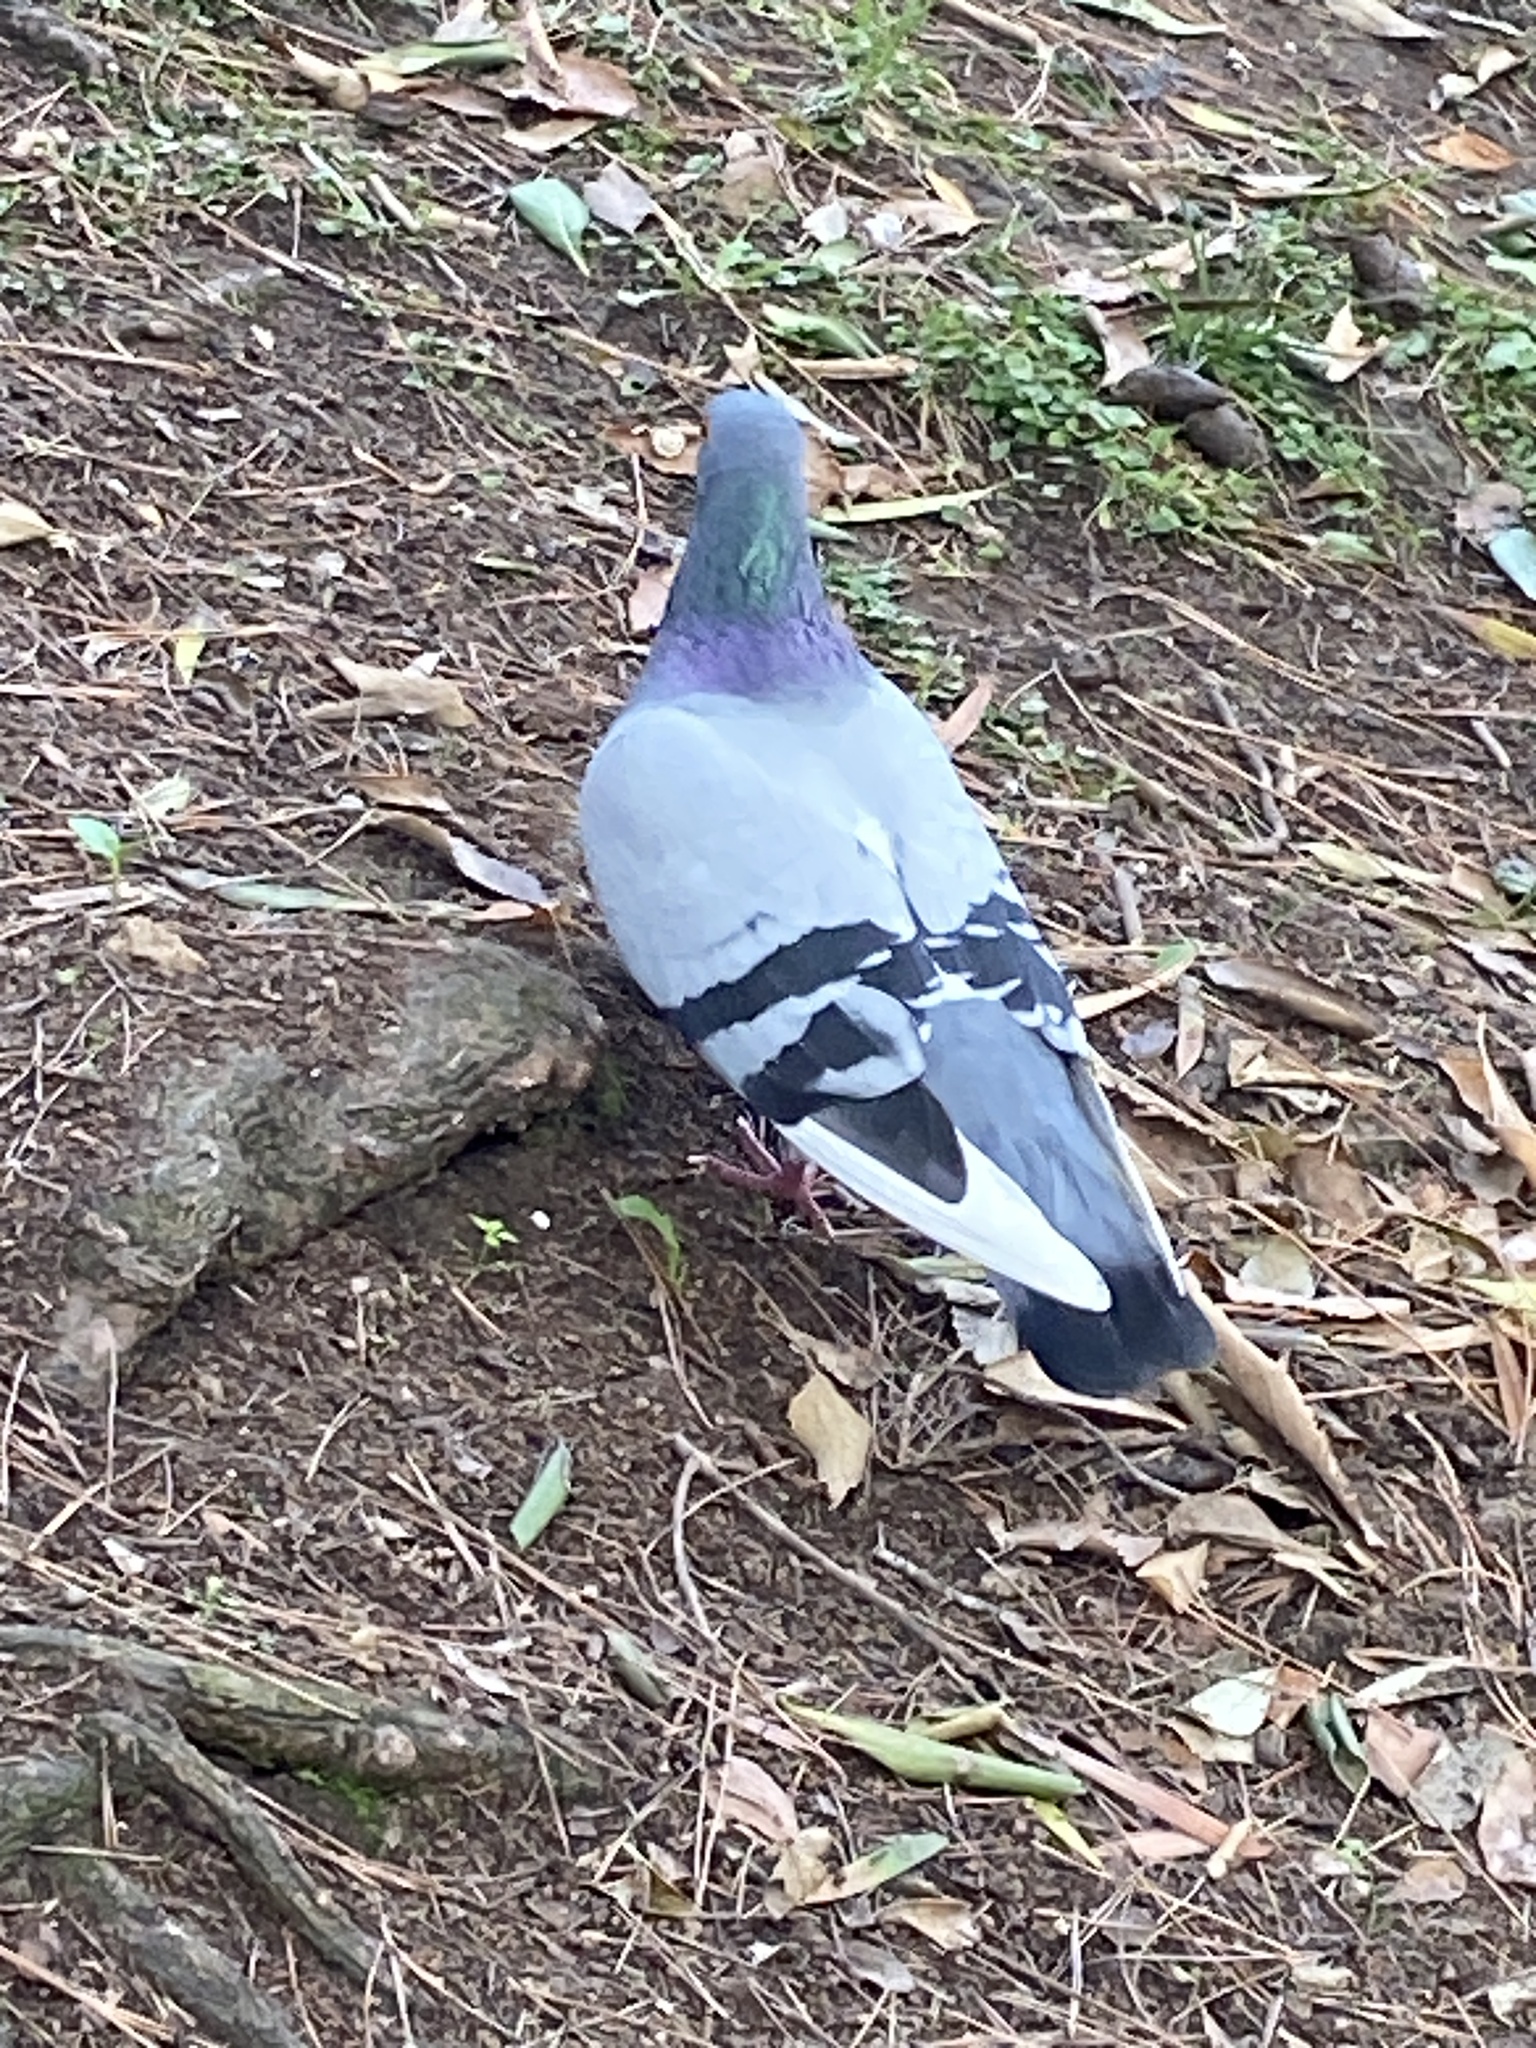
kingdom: Animalia
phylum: Chordata
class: Aves
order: Columbiformes
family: Columbidae
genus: Columba
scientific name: Columba livia
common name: Rock pigeon
